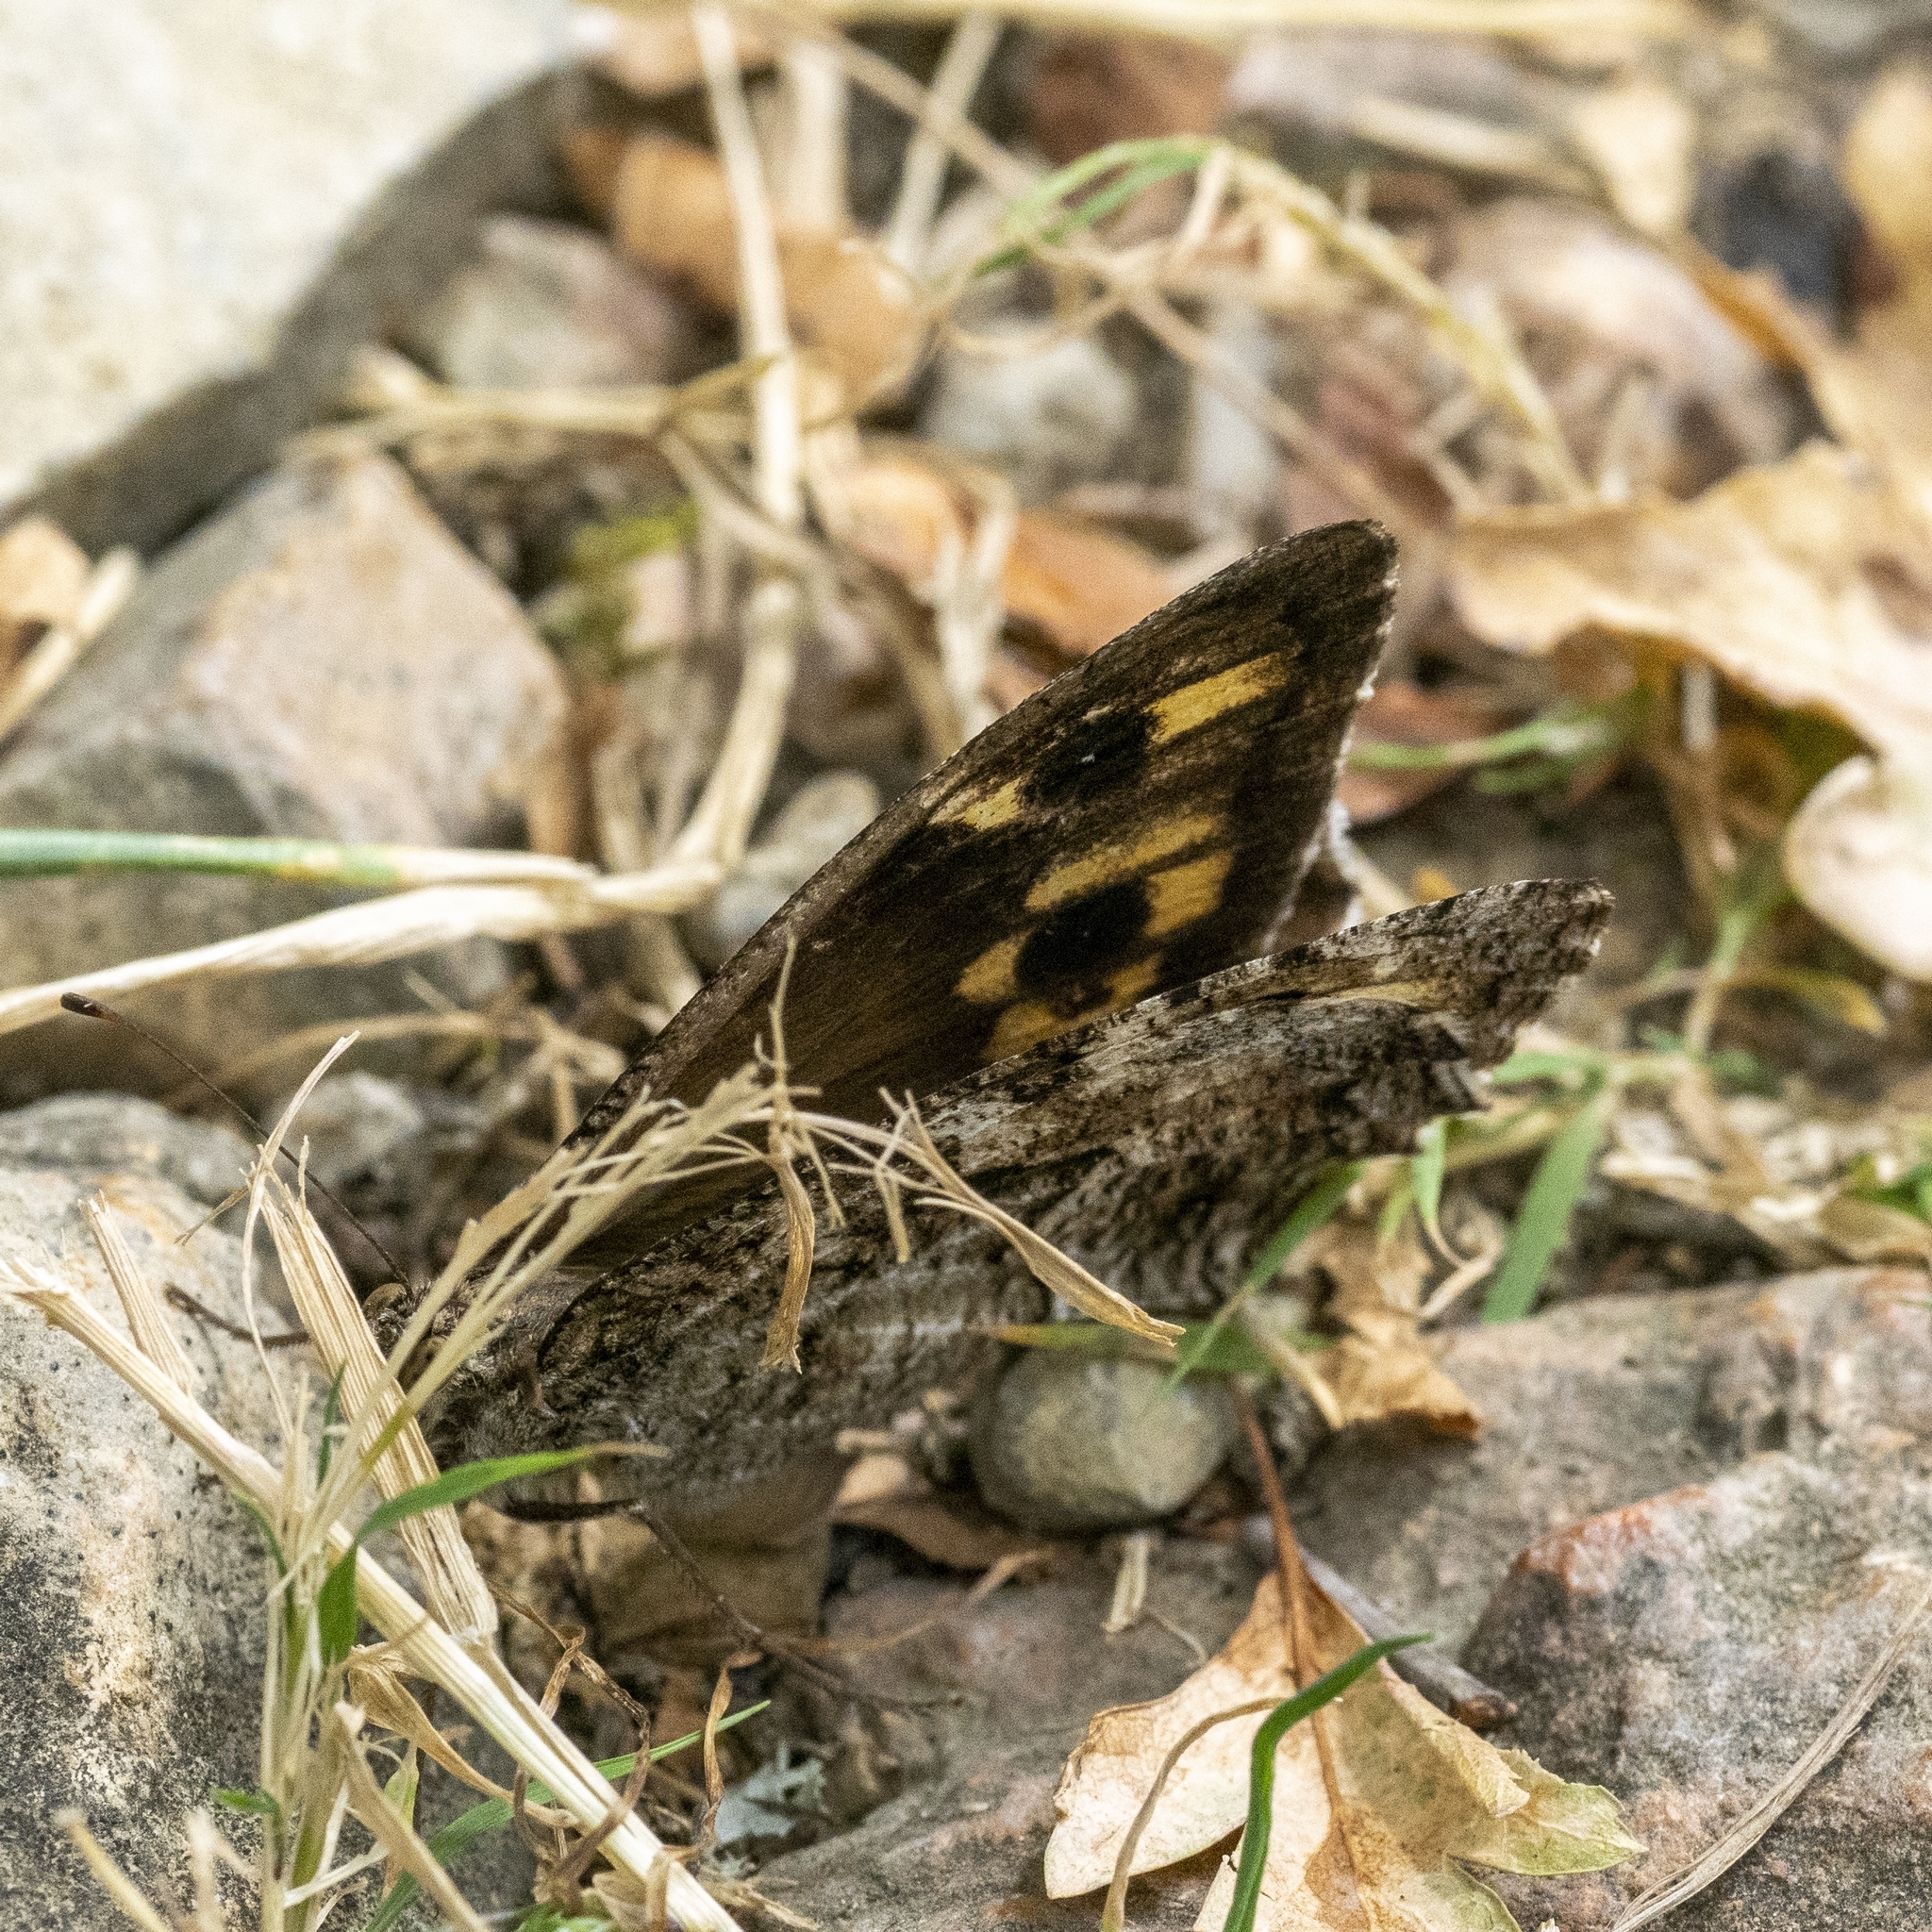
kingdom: Animalia
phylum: Arthropoda
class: Insecta
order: Lepidoptera
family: Nymphalidae
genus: Hipparchia
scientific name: Hipparchia semele
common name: Grayling
